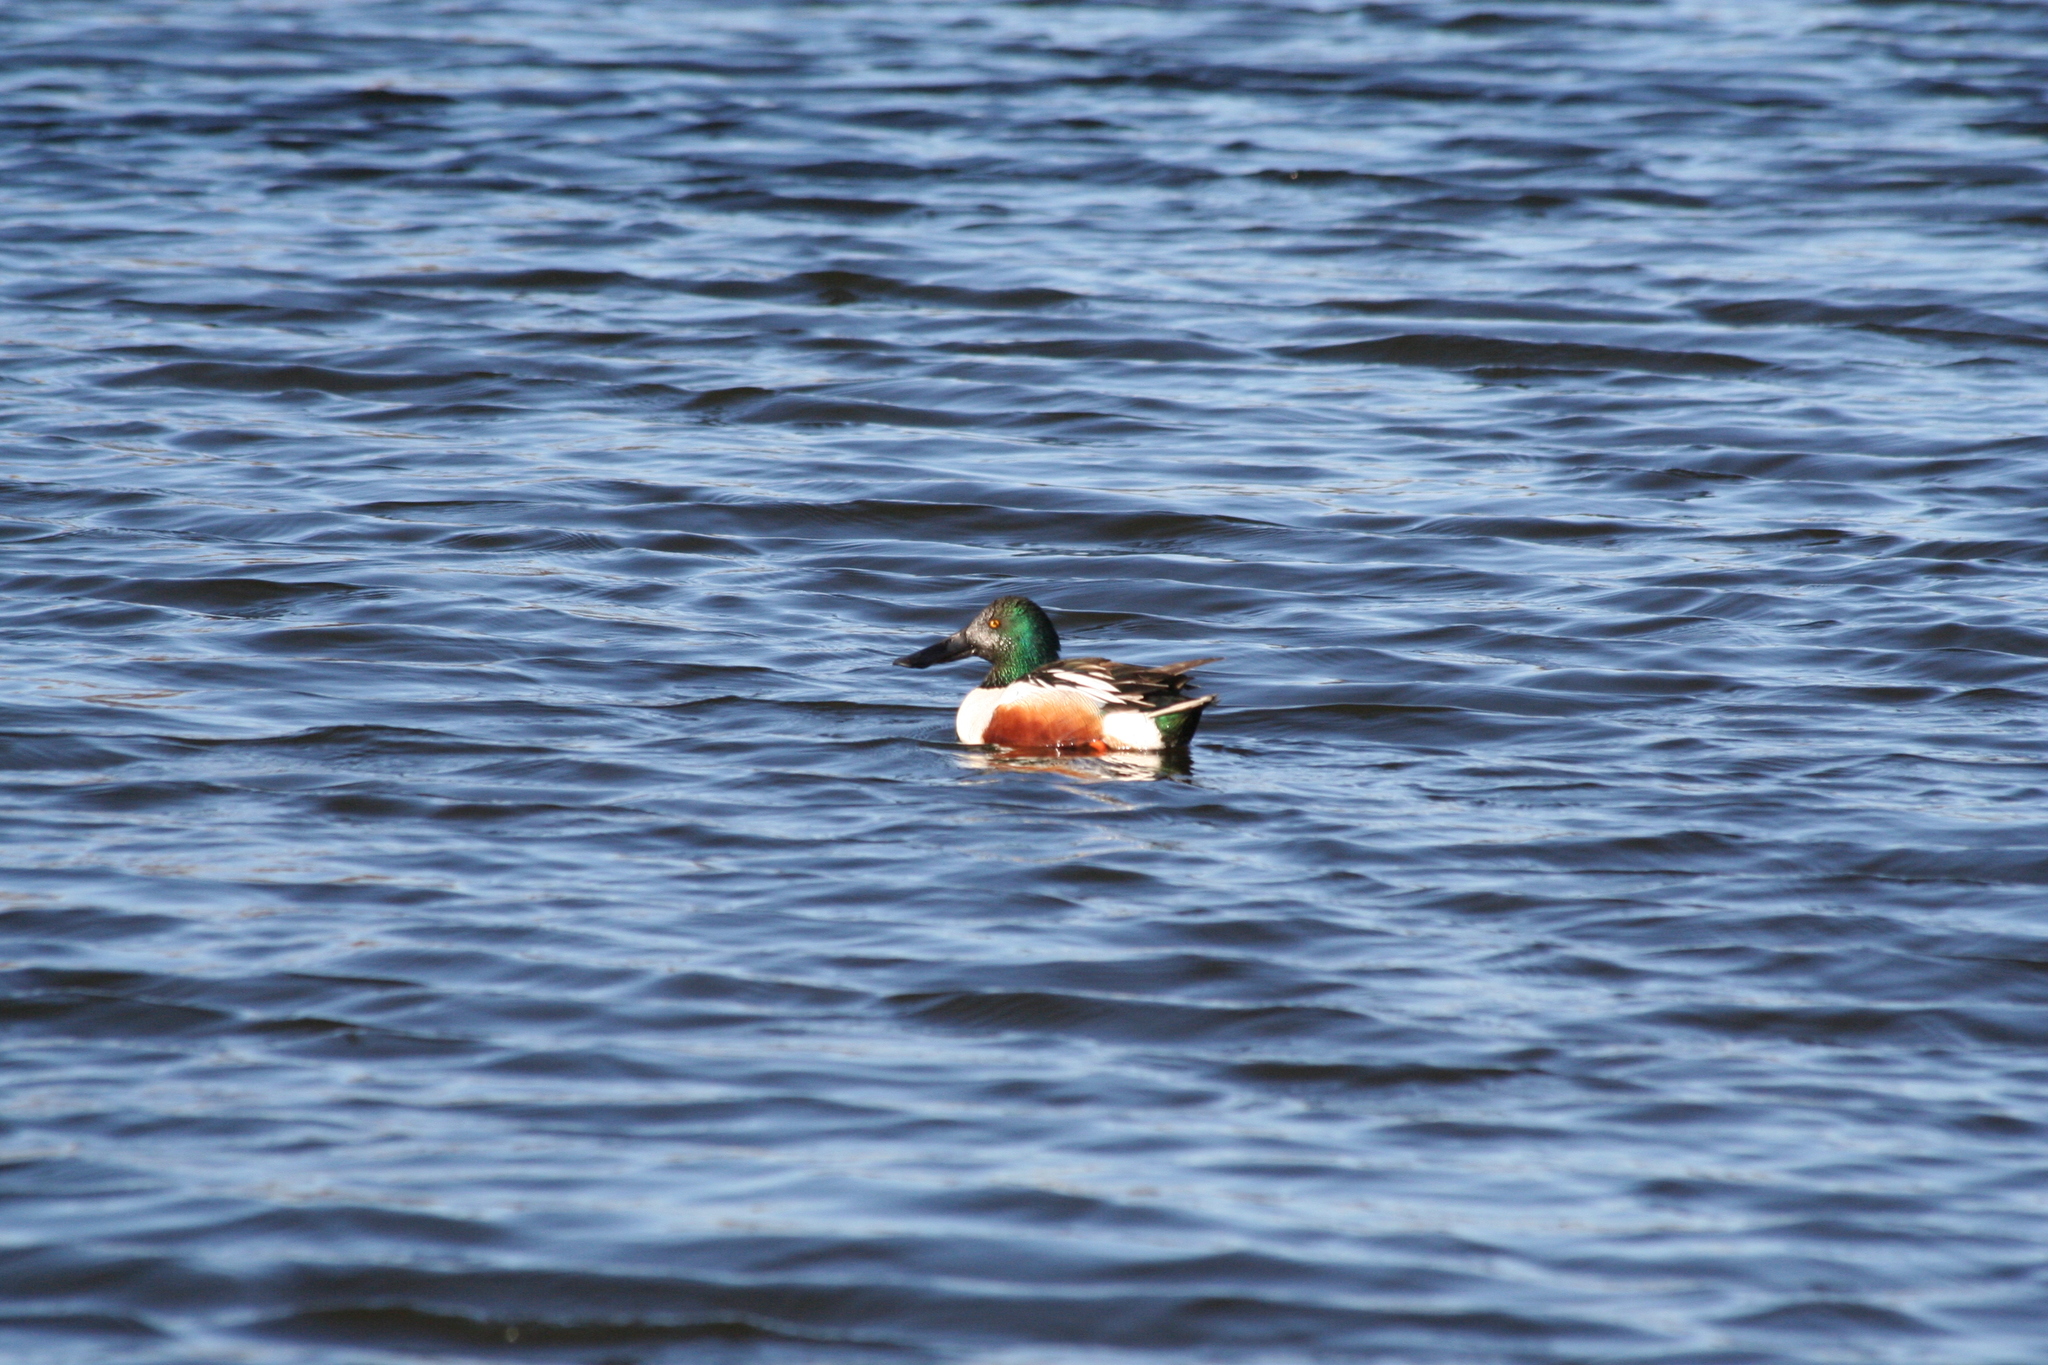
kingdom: Animalia
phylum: Chordata
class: Aves
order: Anseriformes
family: Anatidae
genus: Spatula
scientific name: Spatula clypeata
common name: Northern shoveler
